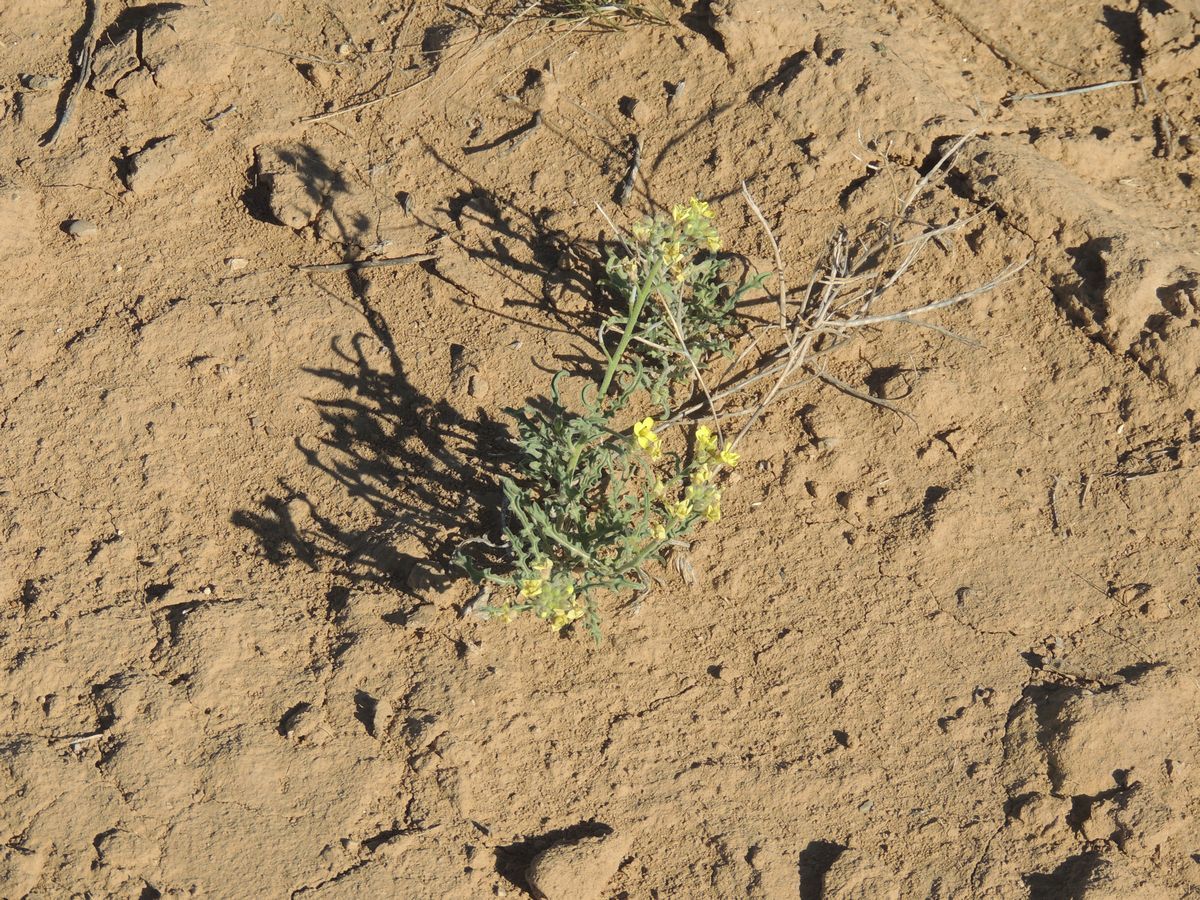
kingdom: Plantae
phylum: Tracheophyta
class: Magnoliopsida
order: Brassicales
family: Brassicaceae
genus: Sterigmostemum
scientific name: Sterigmostemum caspicum
